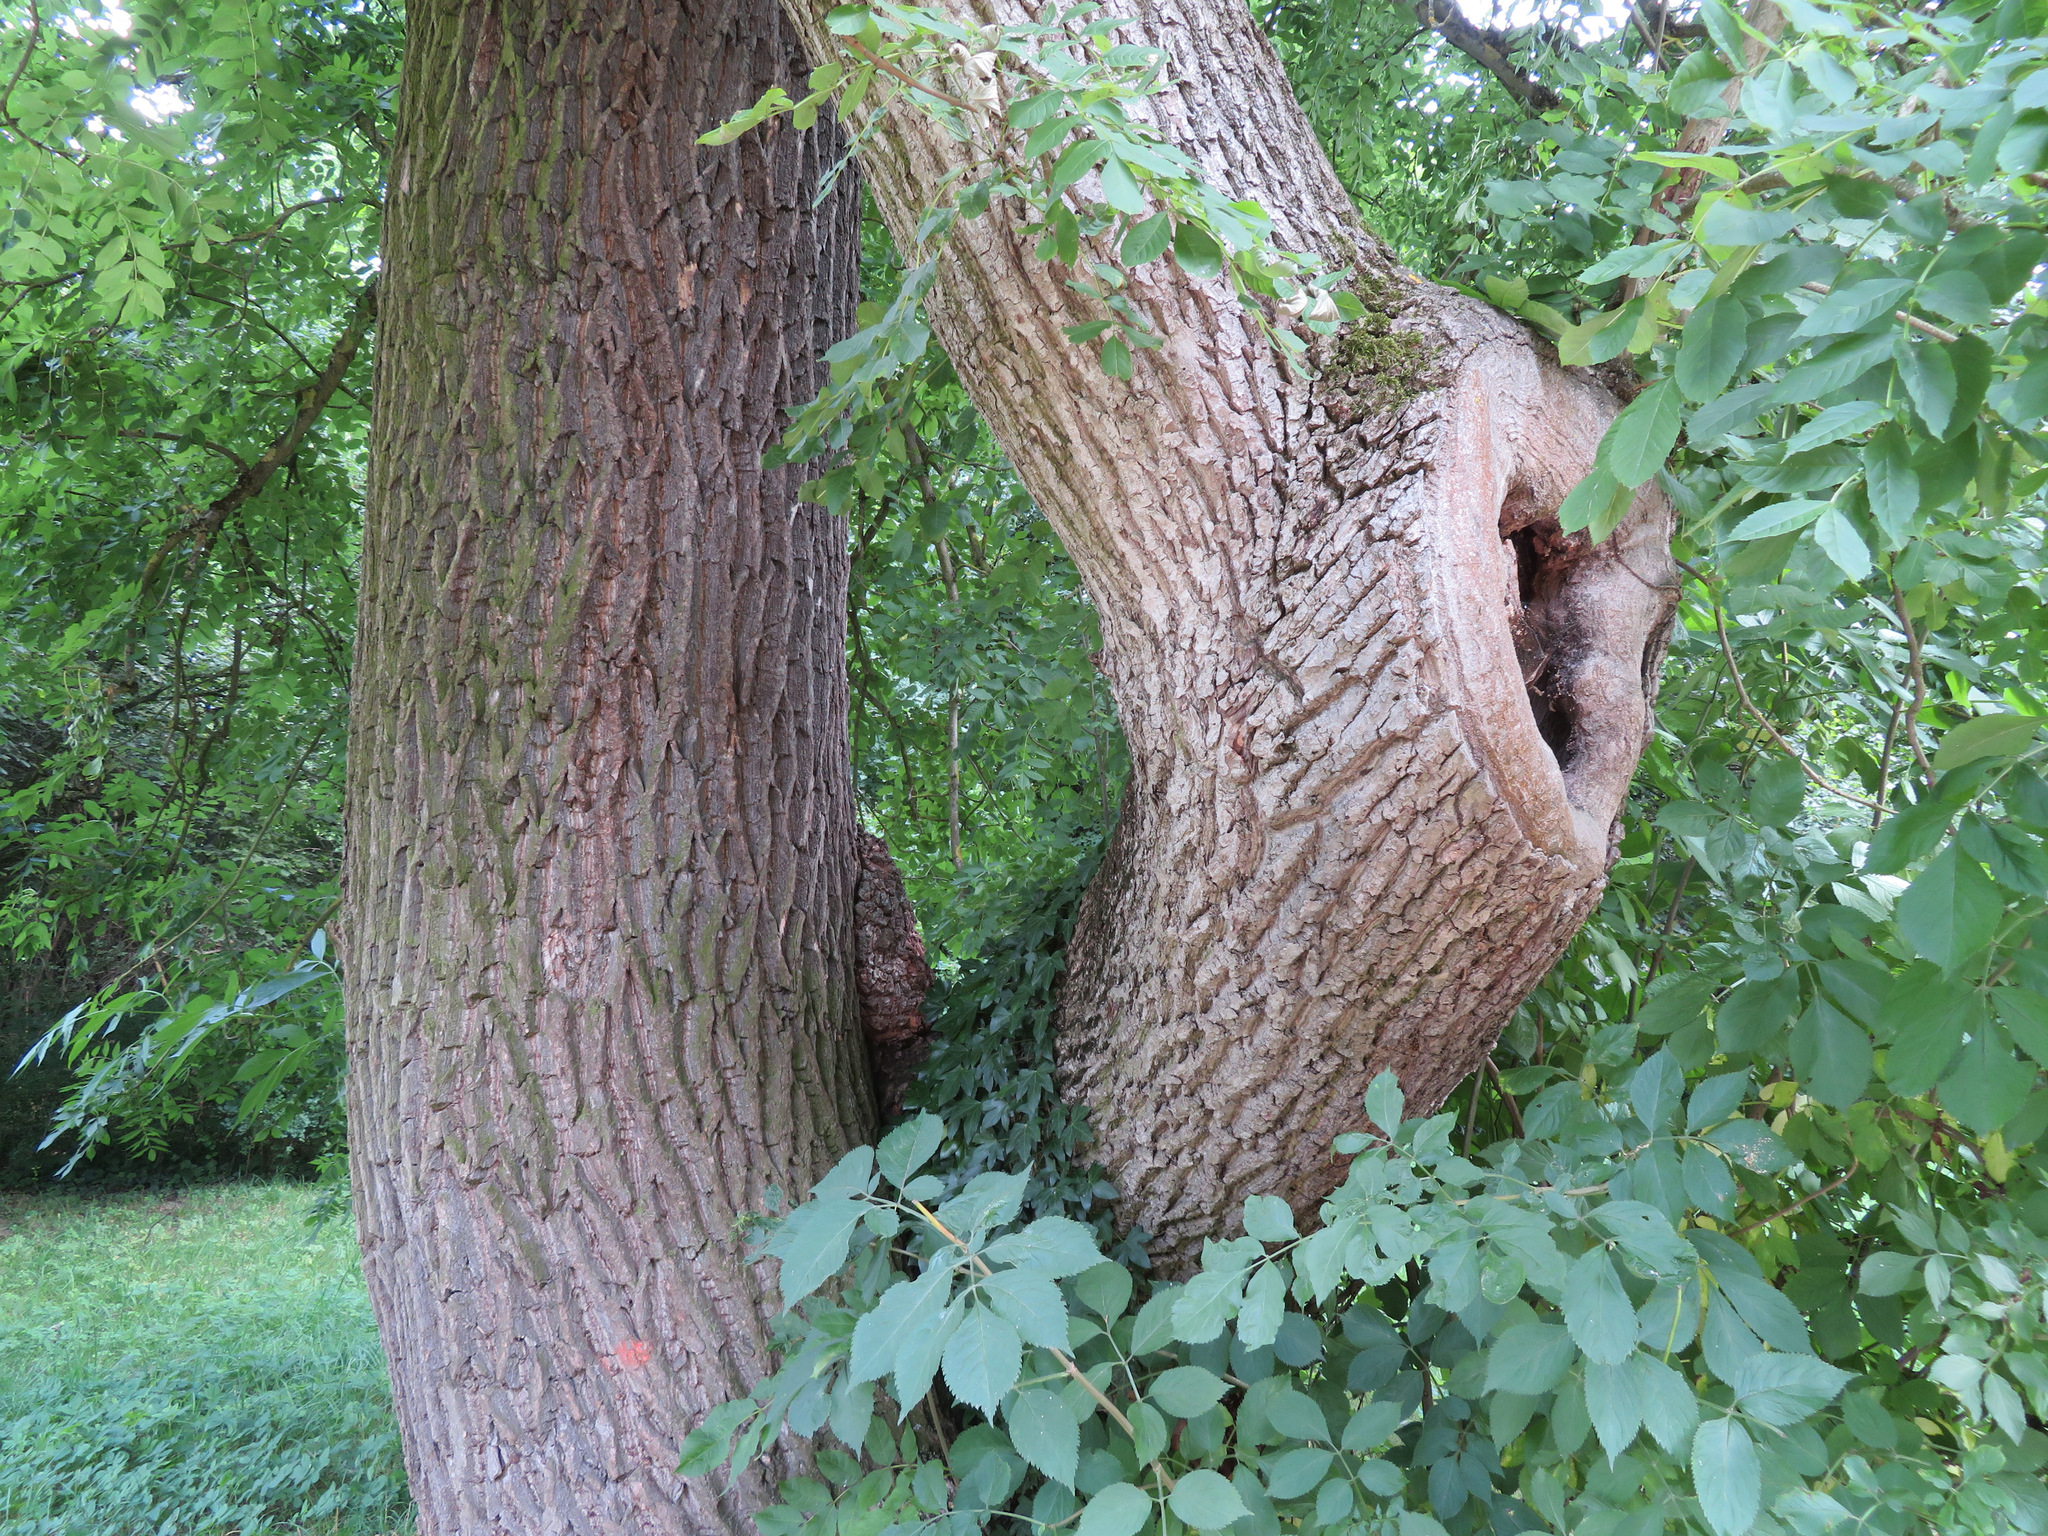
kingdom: Plantae
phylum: Tracheophyta
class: Magnoliopsida
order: Lamiales
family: Oleaceae
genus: Fraxinus
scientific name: Fraxinus excelsior
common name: European ash
